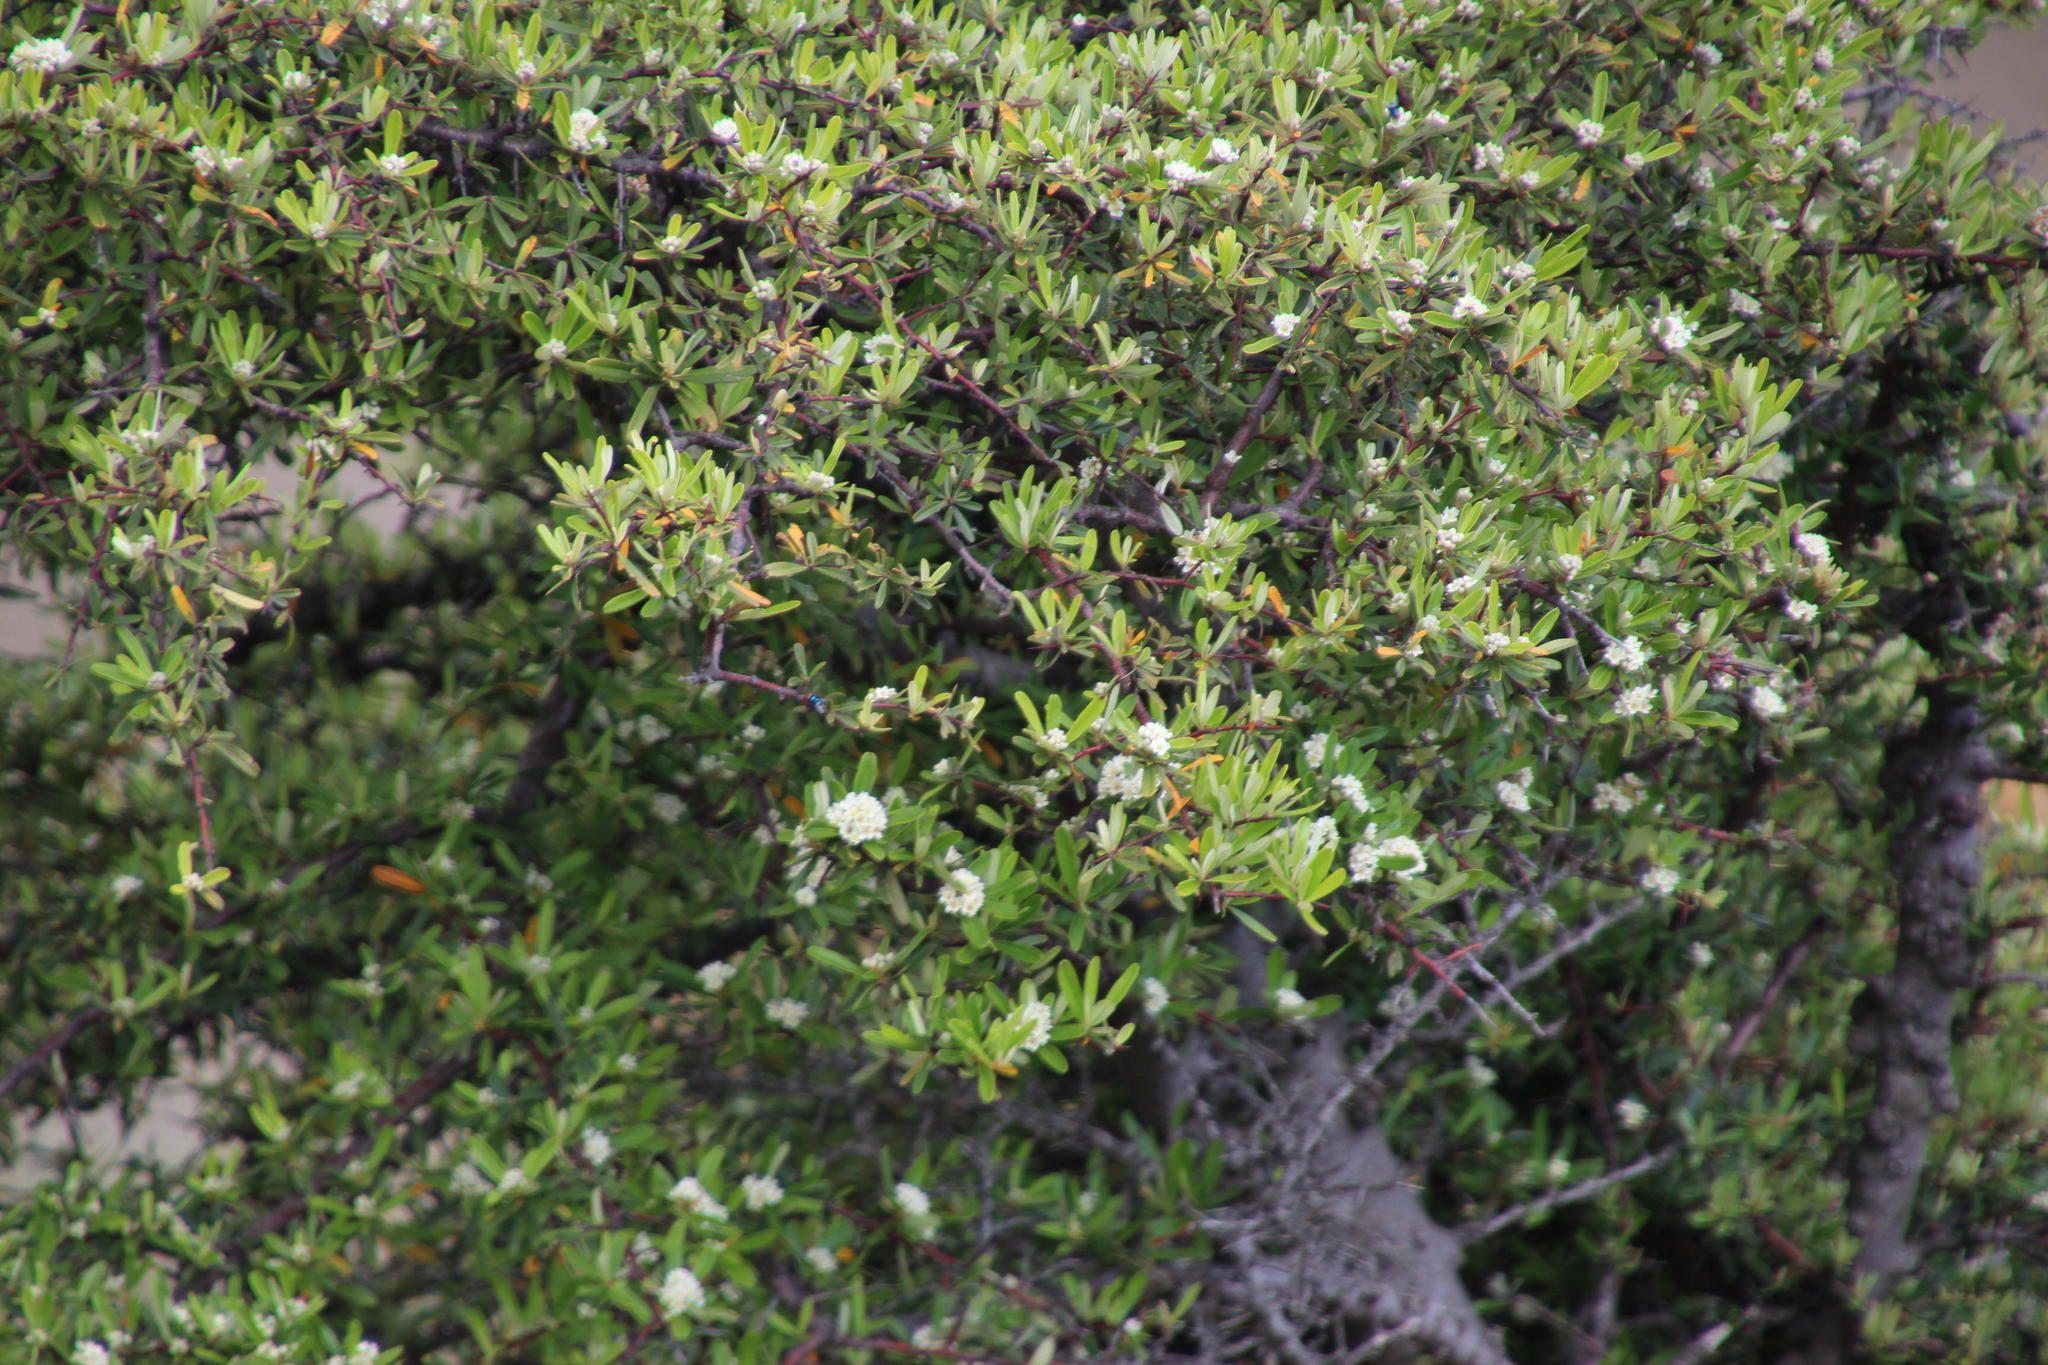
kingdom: Plantae
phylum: Tracheophyta
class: Magnoliopsida
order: Rosales
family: Rosaceae
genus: Pyracantha
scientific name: Pyracantha angustifolia
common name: Narrowleaf firethorn
